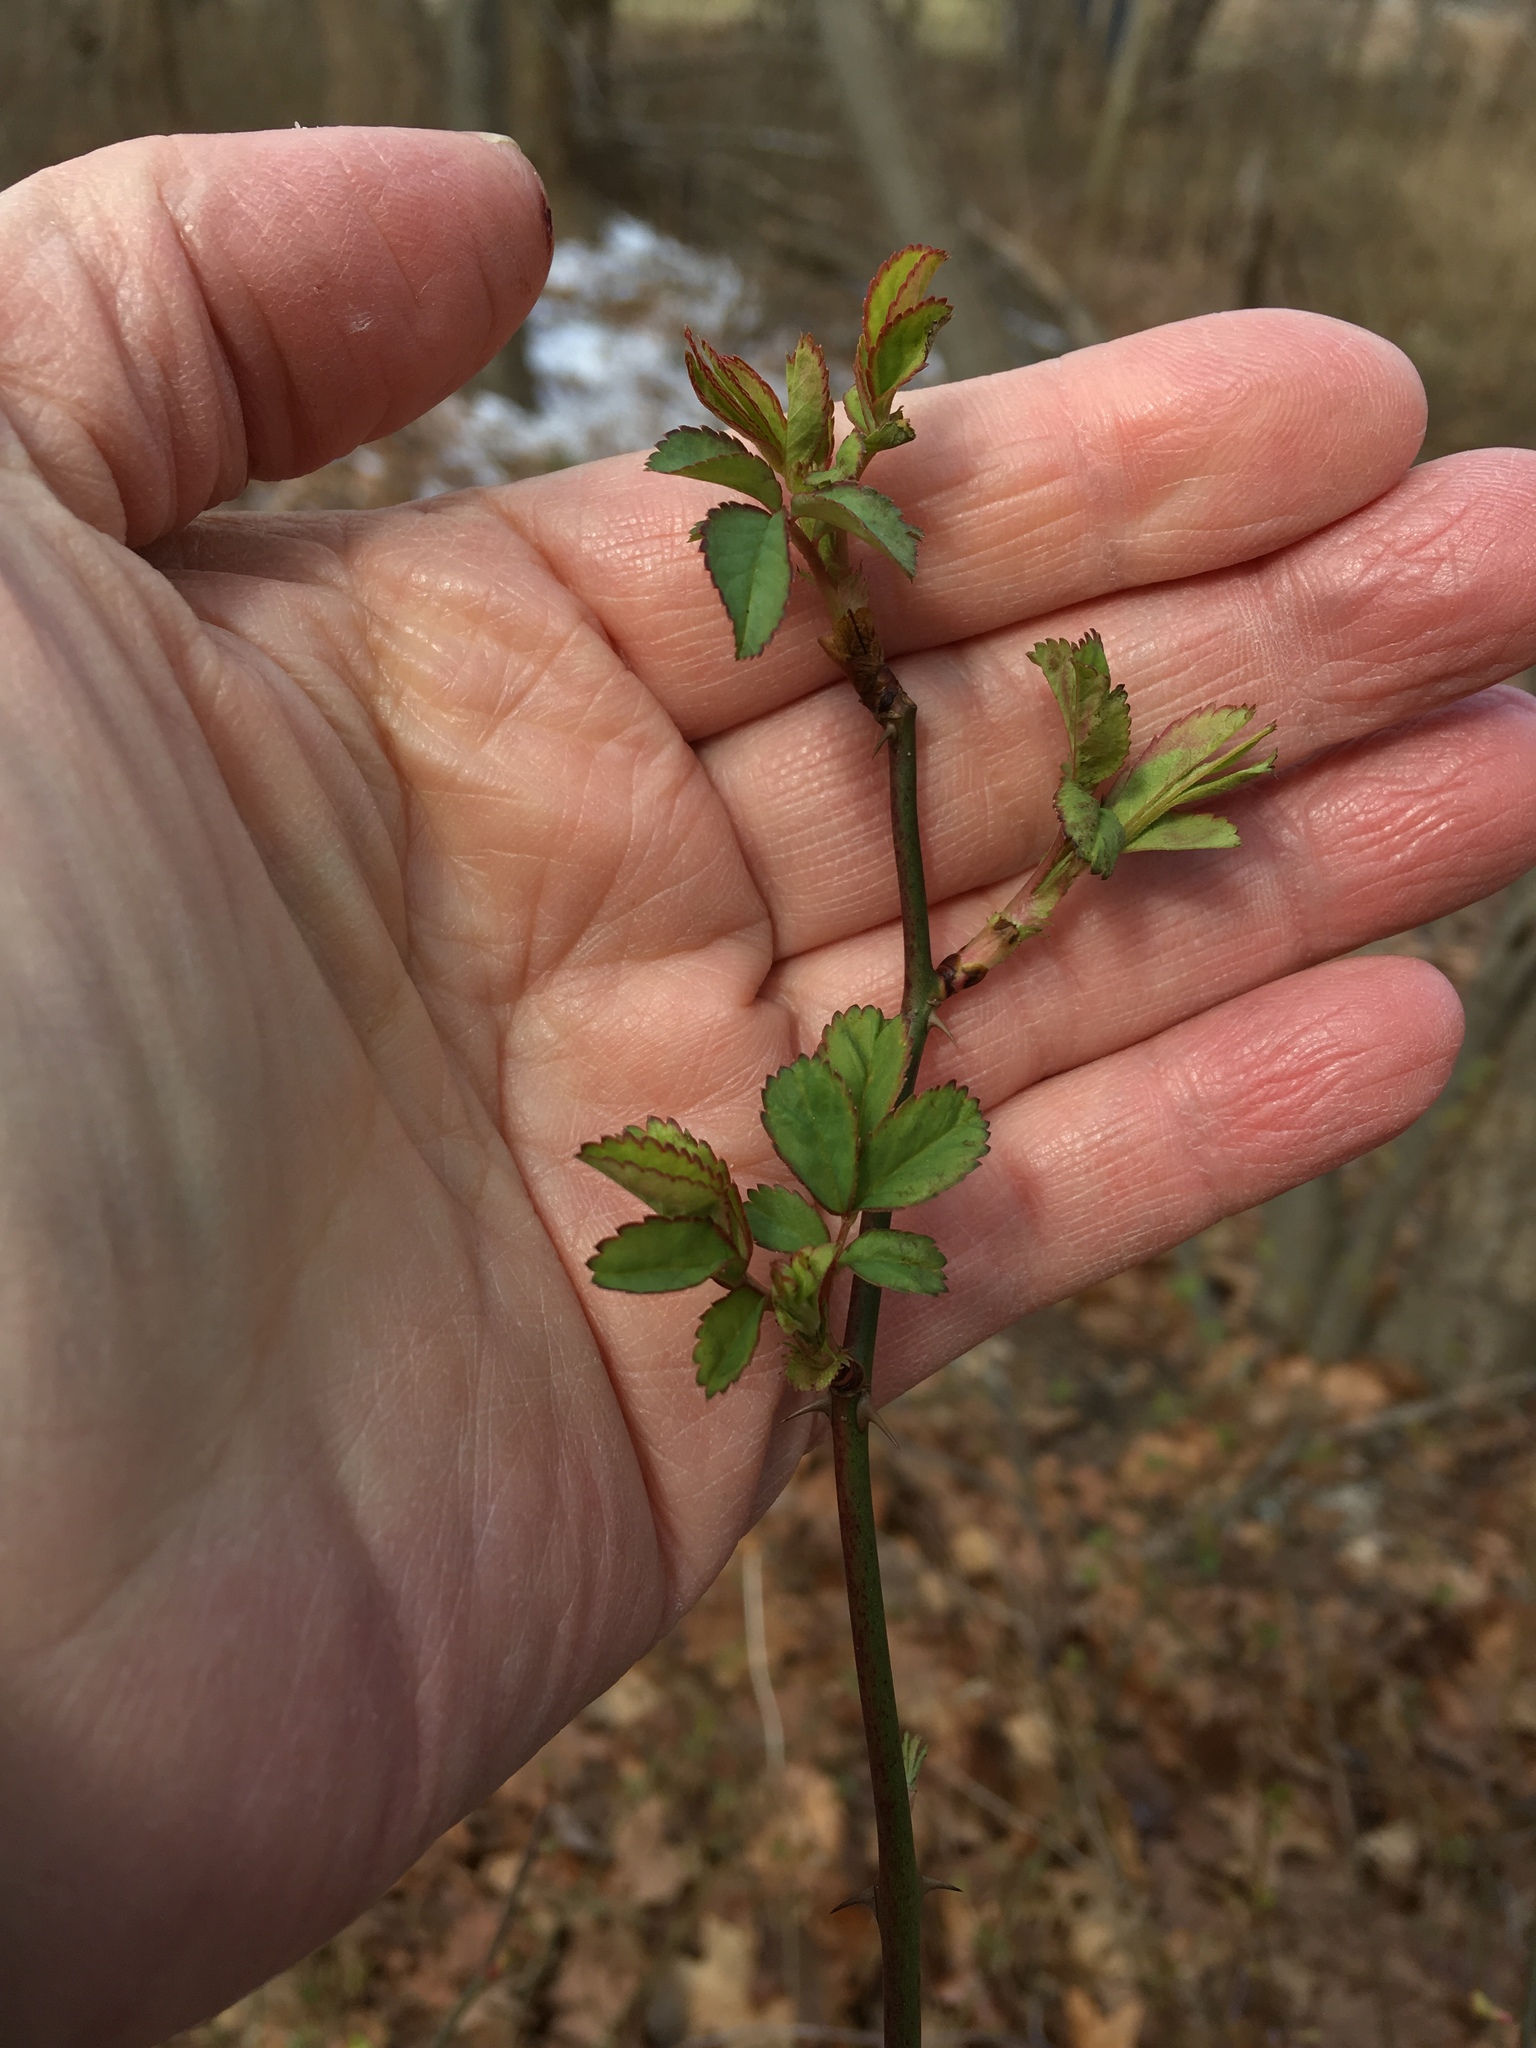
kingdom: Plantae
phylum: Tracheophyta
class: Magnoliopsida
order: Rosales
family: Rosaceae
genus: Rosa
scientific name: Rosa multiflora
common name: Multiflora rose
